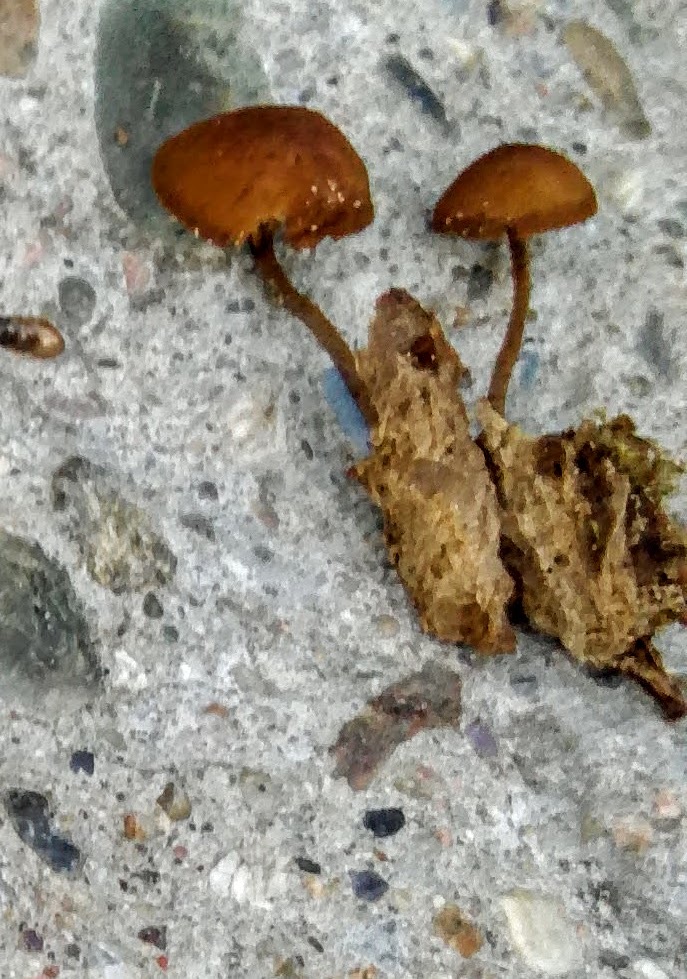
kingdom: Fungi
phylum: Basidiomycota
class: Agaricomycetes
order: Agaricales
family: Tubariaceae
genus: Flammulaster
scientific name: Flammulaster muricatus
